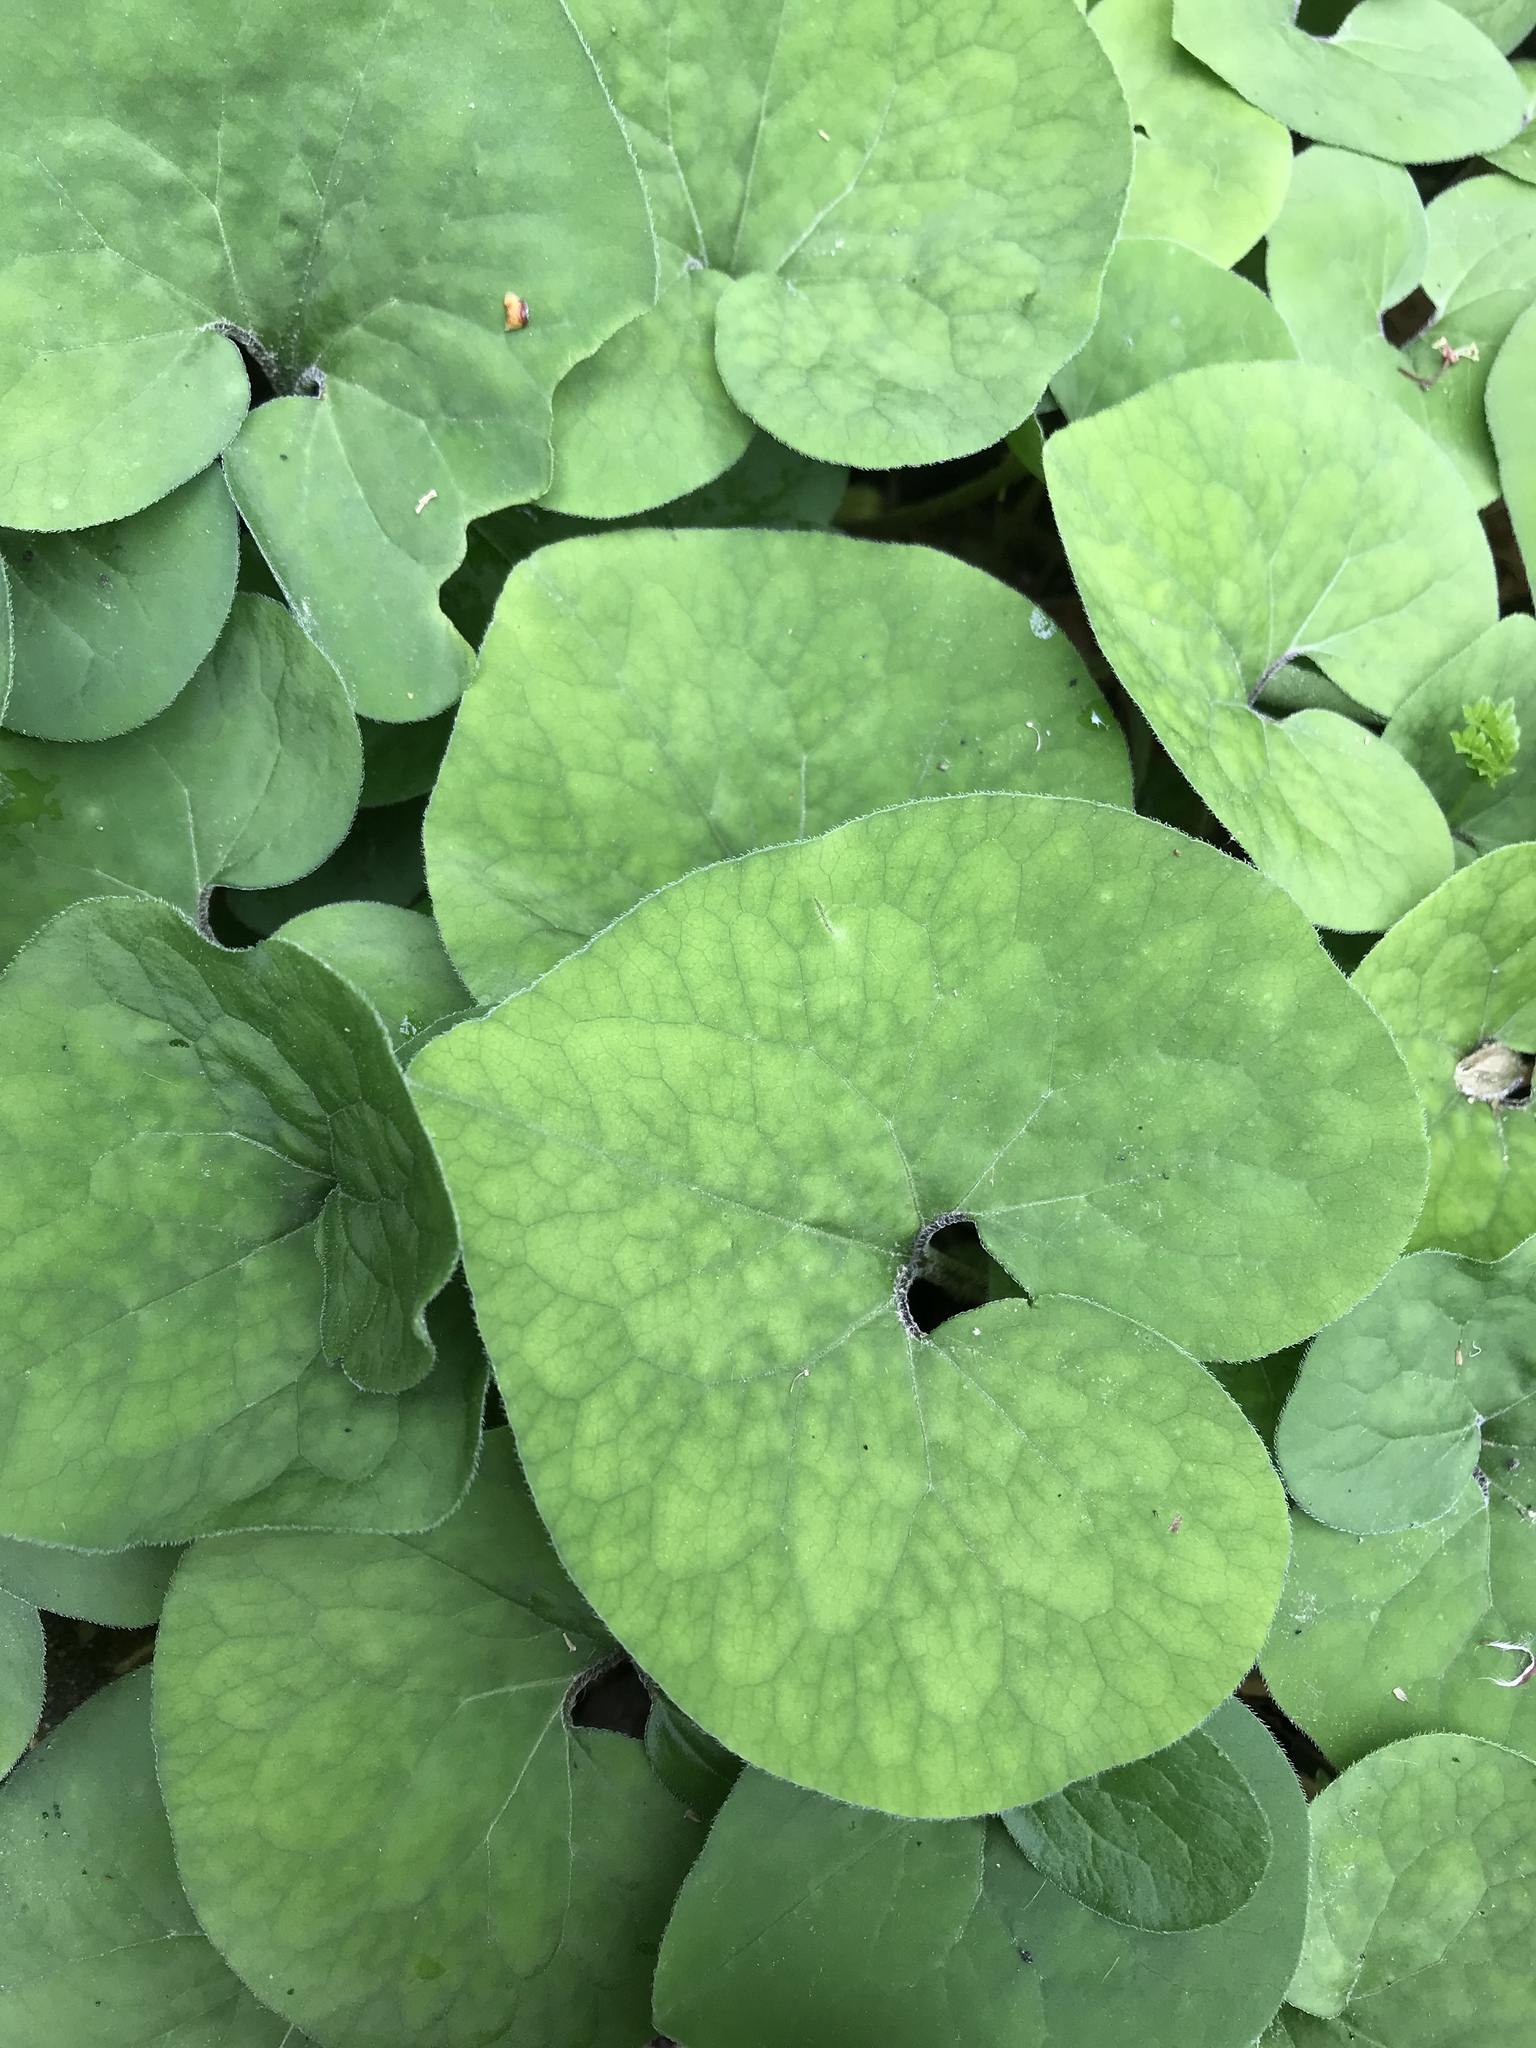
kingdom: Plantae
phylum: Tracheophyta
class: Magnoliopsida
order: Piperales
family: Aristolochiaceae
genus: Asarum
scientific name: Asarum canadense
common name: Wild ginger
